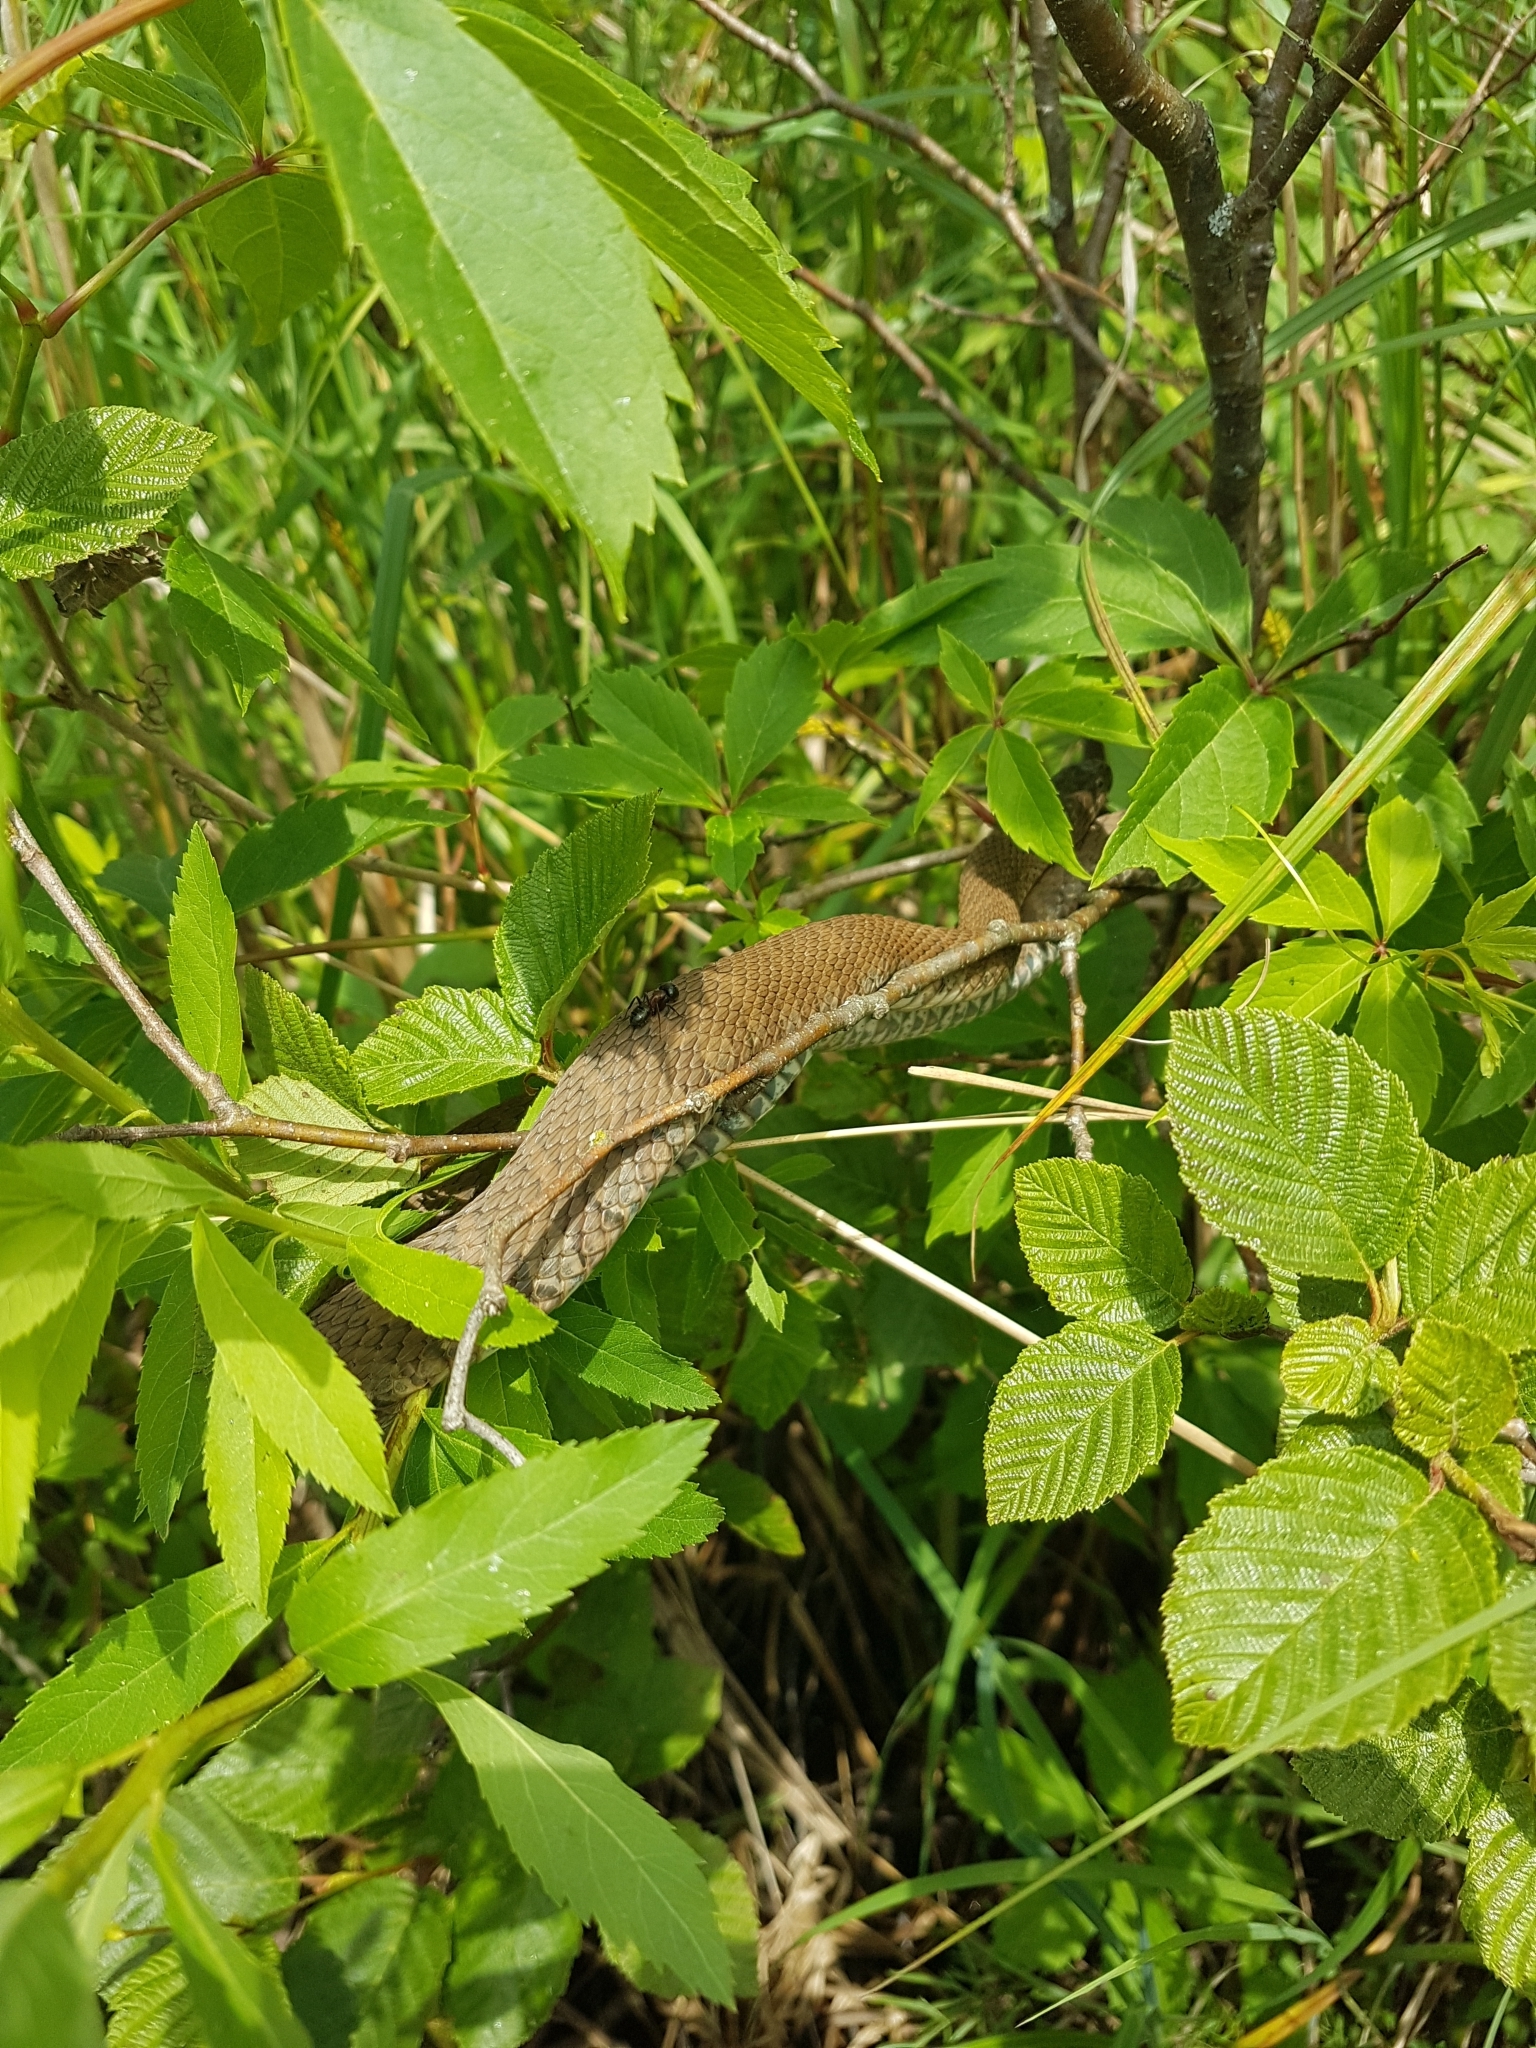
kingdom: Animalia
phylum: Chordata
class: Squamata
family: Colubridae
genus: Nerodia
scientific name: Nerodia sipedon
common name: Northern water snake
